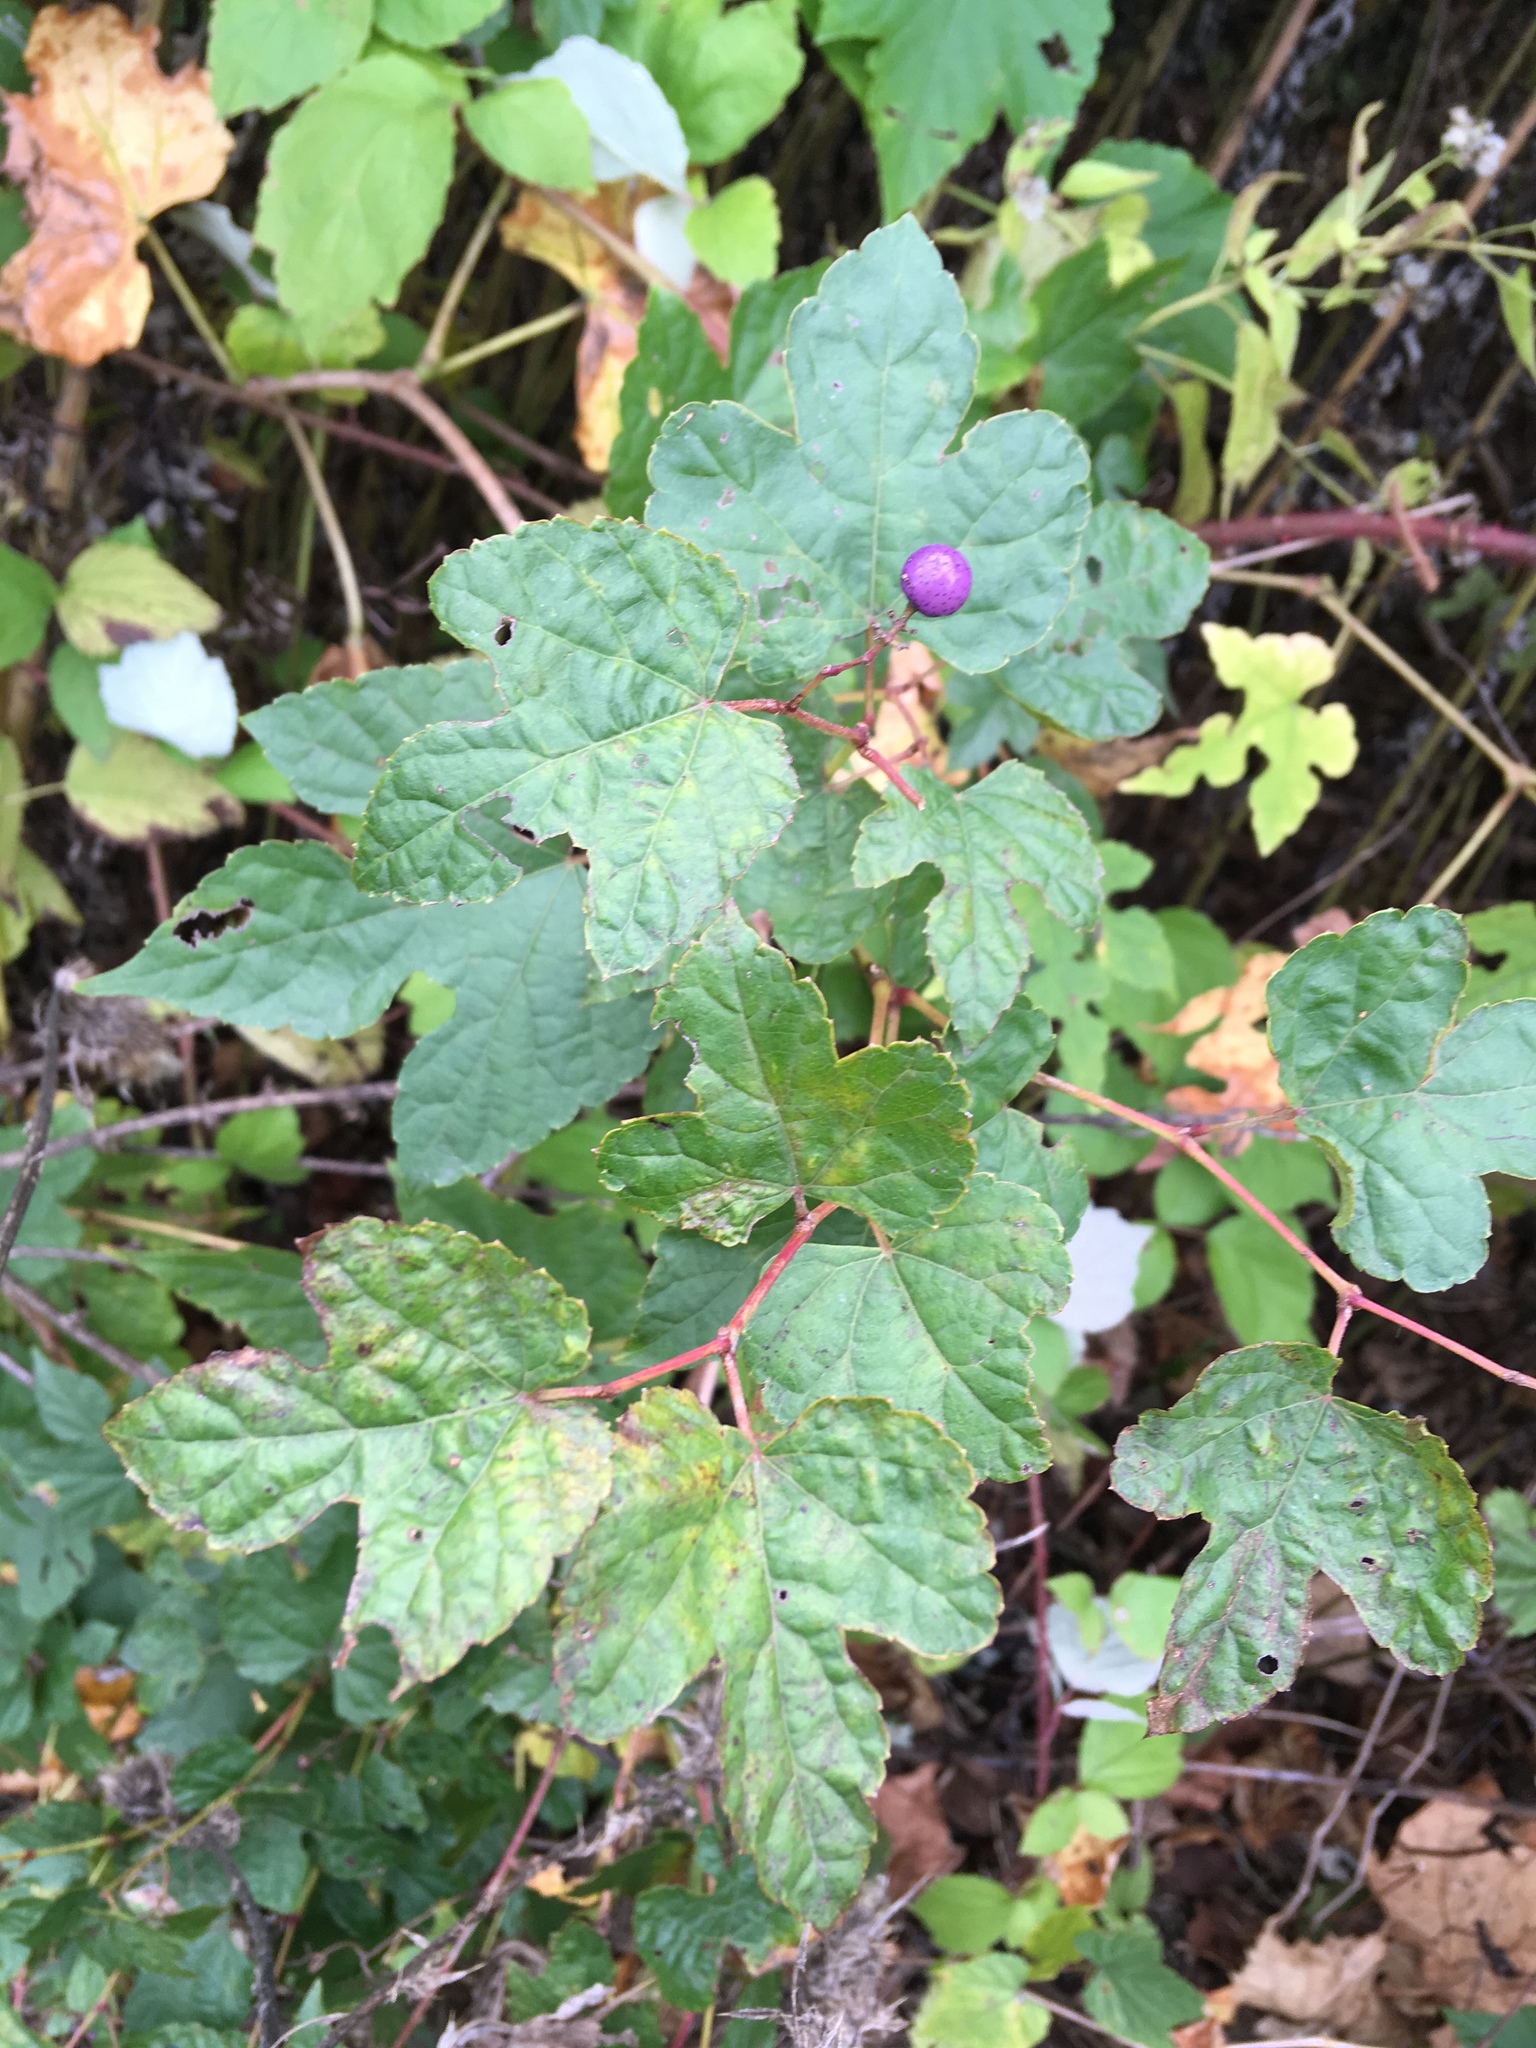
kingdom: Plantae
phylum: Tracheophyta
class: Magnoliopsida
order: Vitales
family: Vitaceae
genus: Ampelopsis
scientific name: Ampelopsis glandulosa
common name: Amur peppervine
